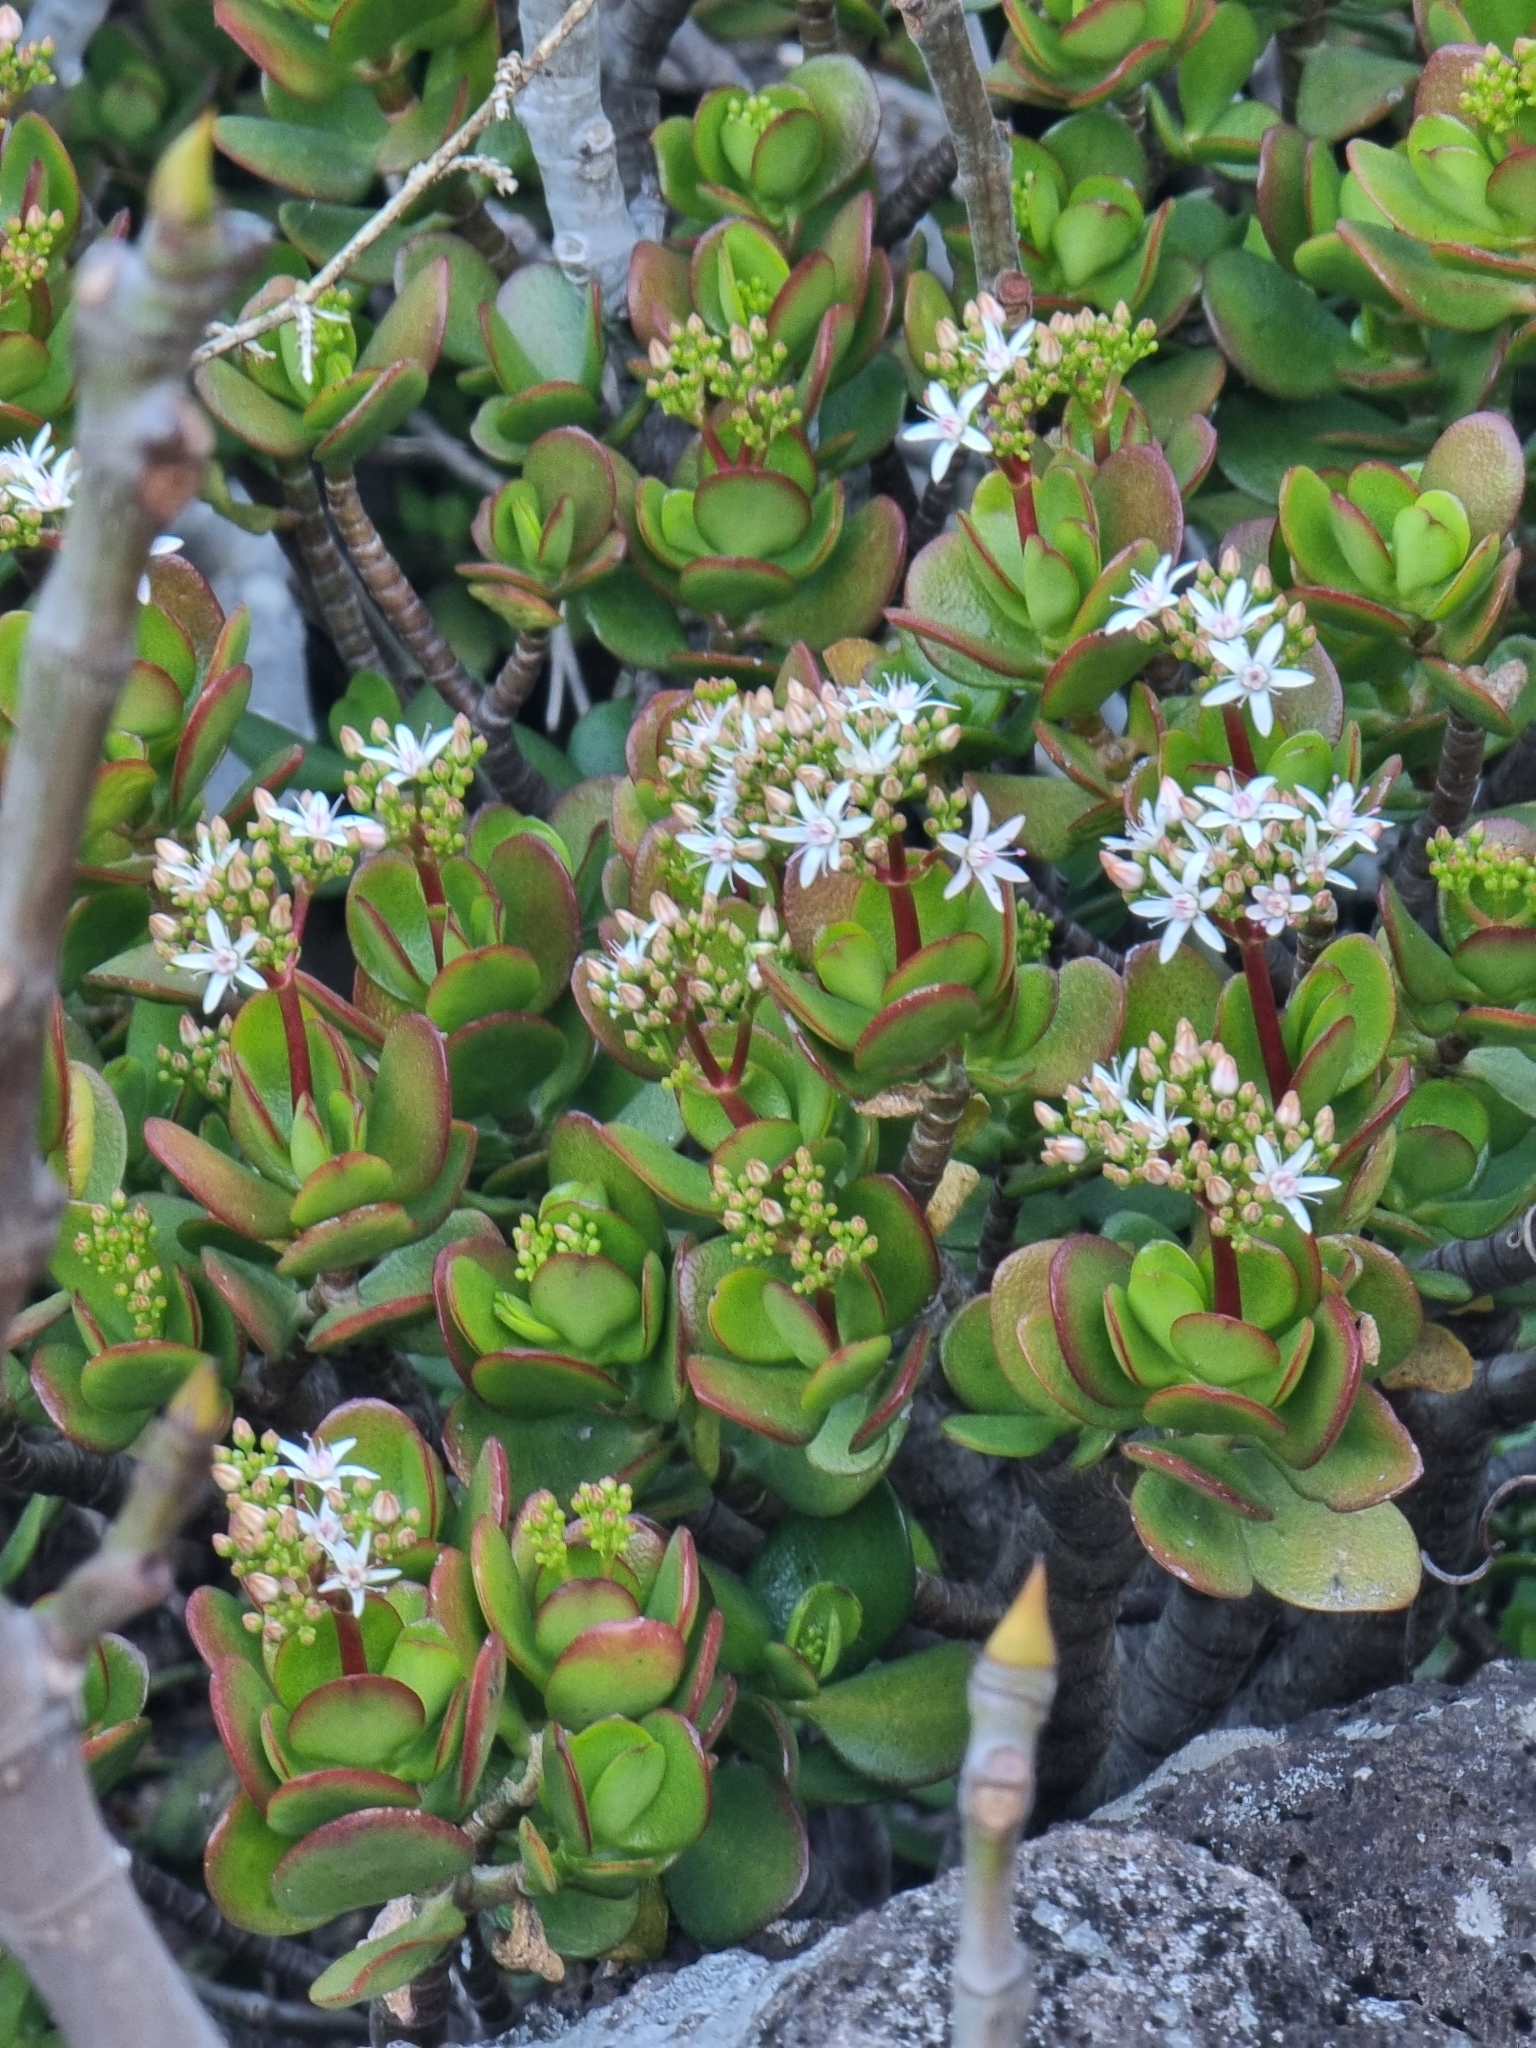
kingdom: Plantae
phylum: Tracheophyta
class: Magnoliopsida
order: Saxifragales
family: Crassulaceae
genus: Crassula
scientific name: Crassula ovata
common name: Jade plant
